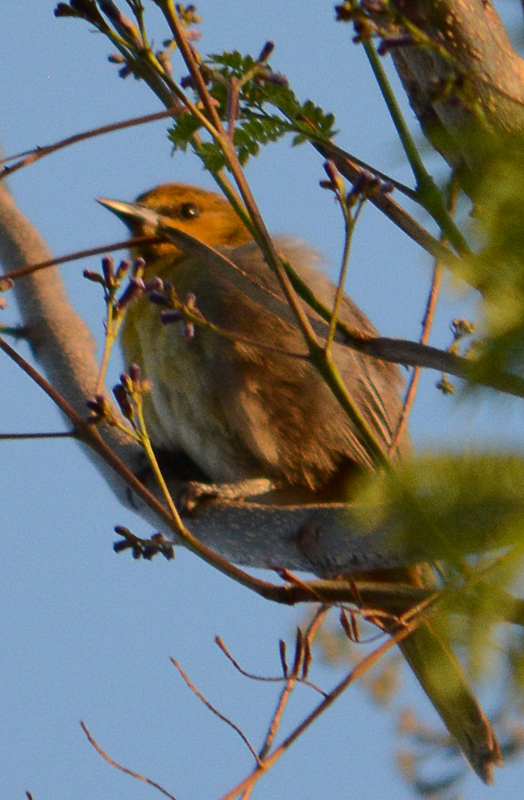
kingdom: Animalia
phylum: Chordata
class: Aves
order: Passeriformes
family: Icteridae
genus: Icterus
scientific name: Icterus bullockii
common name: Bullock's oriole
